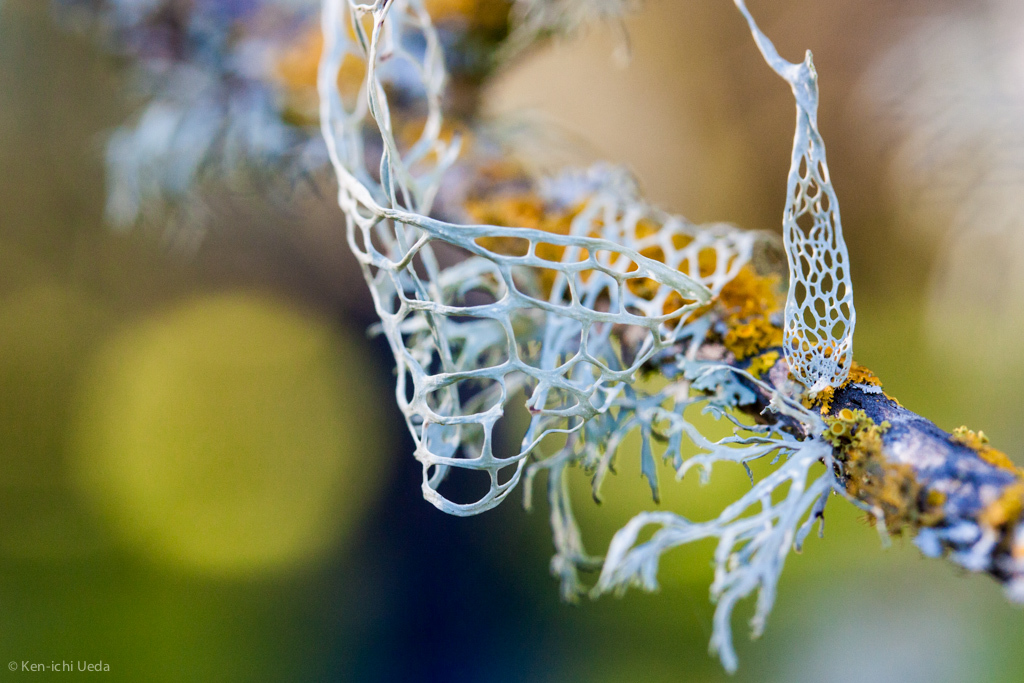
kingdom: Fungi
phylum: Ascomycota
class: Lecanoromycetes
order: Lecanorales
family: Ramalinaceae
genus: Ramalina
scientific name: Ramalina menziesii
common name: Lace lichen
